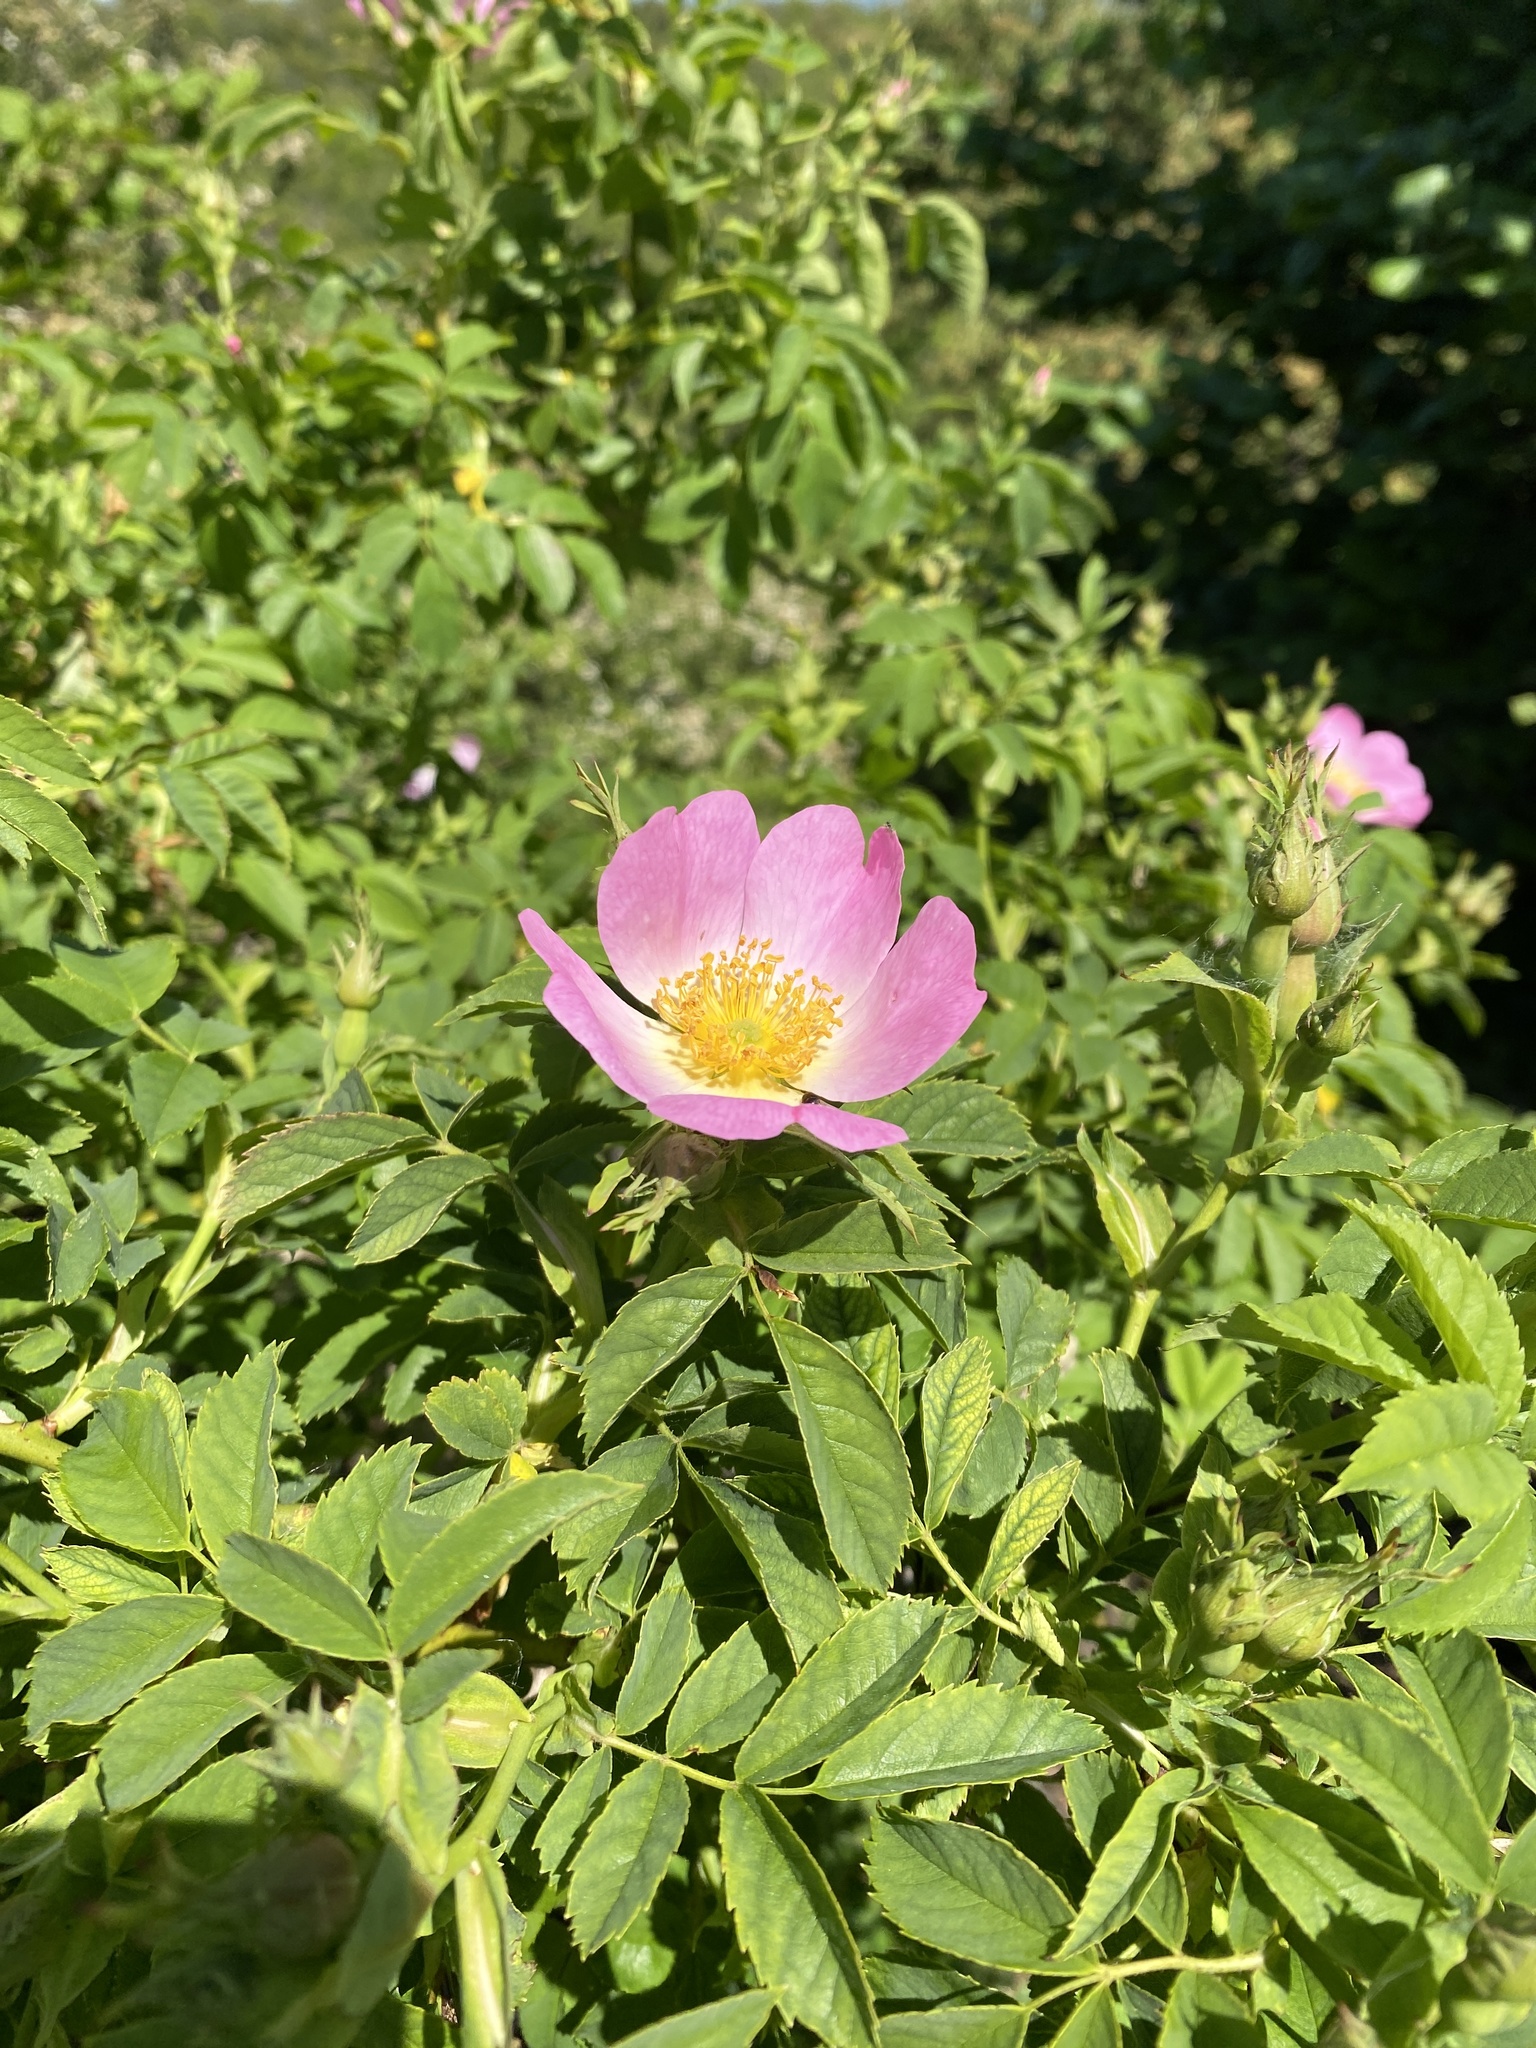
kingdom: Plantae
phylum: Tracheophyta
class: Magnoliopsida
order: Rosales
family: Rosaceae
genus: Rosa
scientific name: Rosa rubiginosa
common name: Sweet-briar
